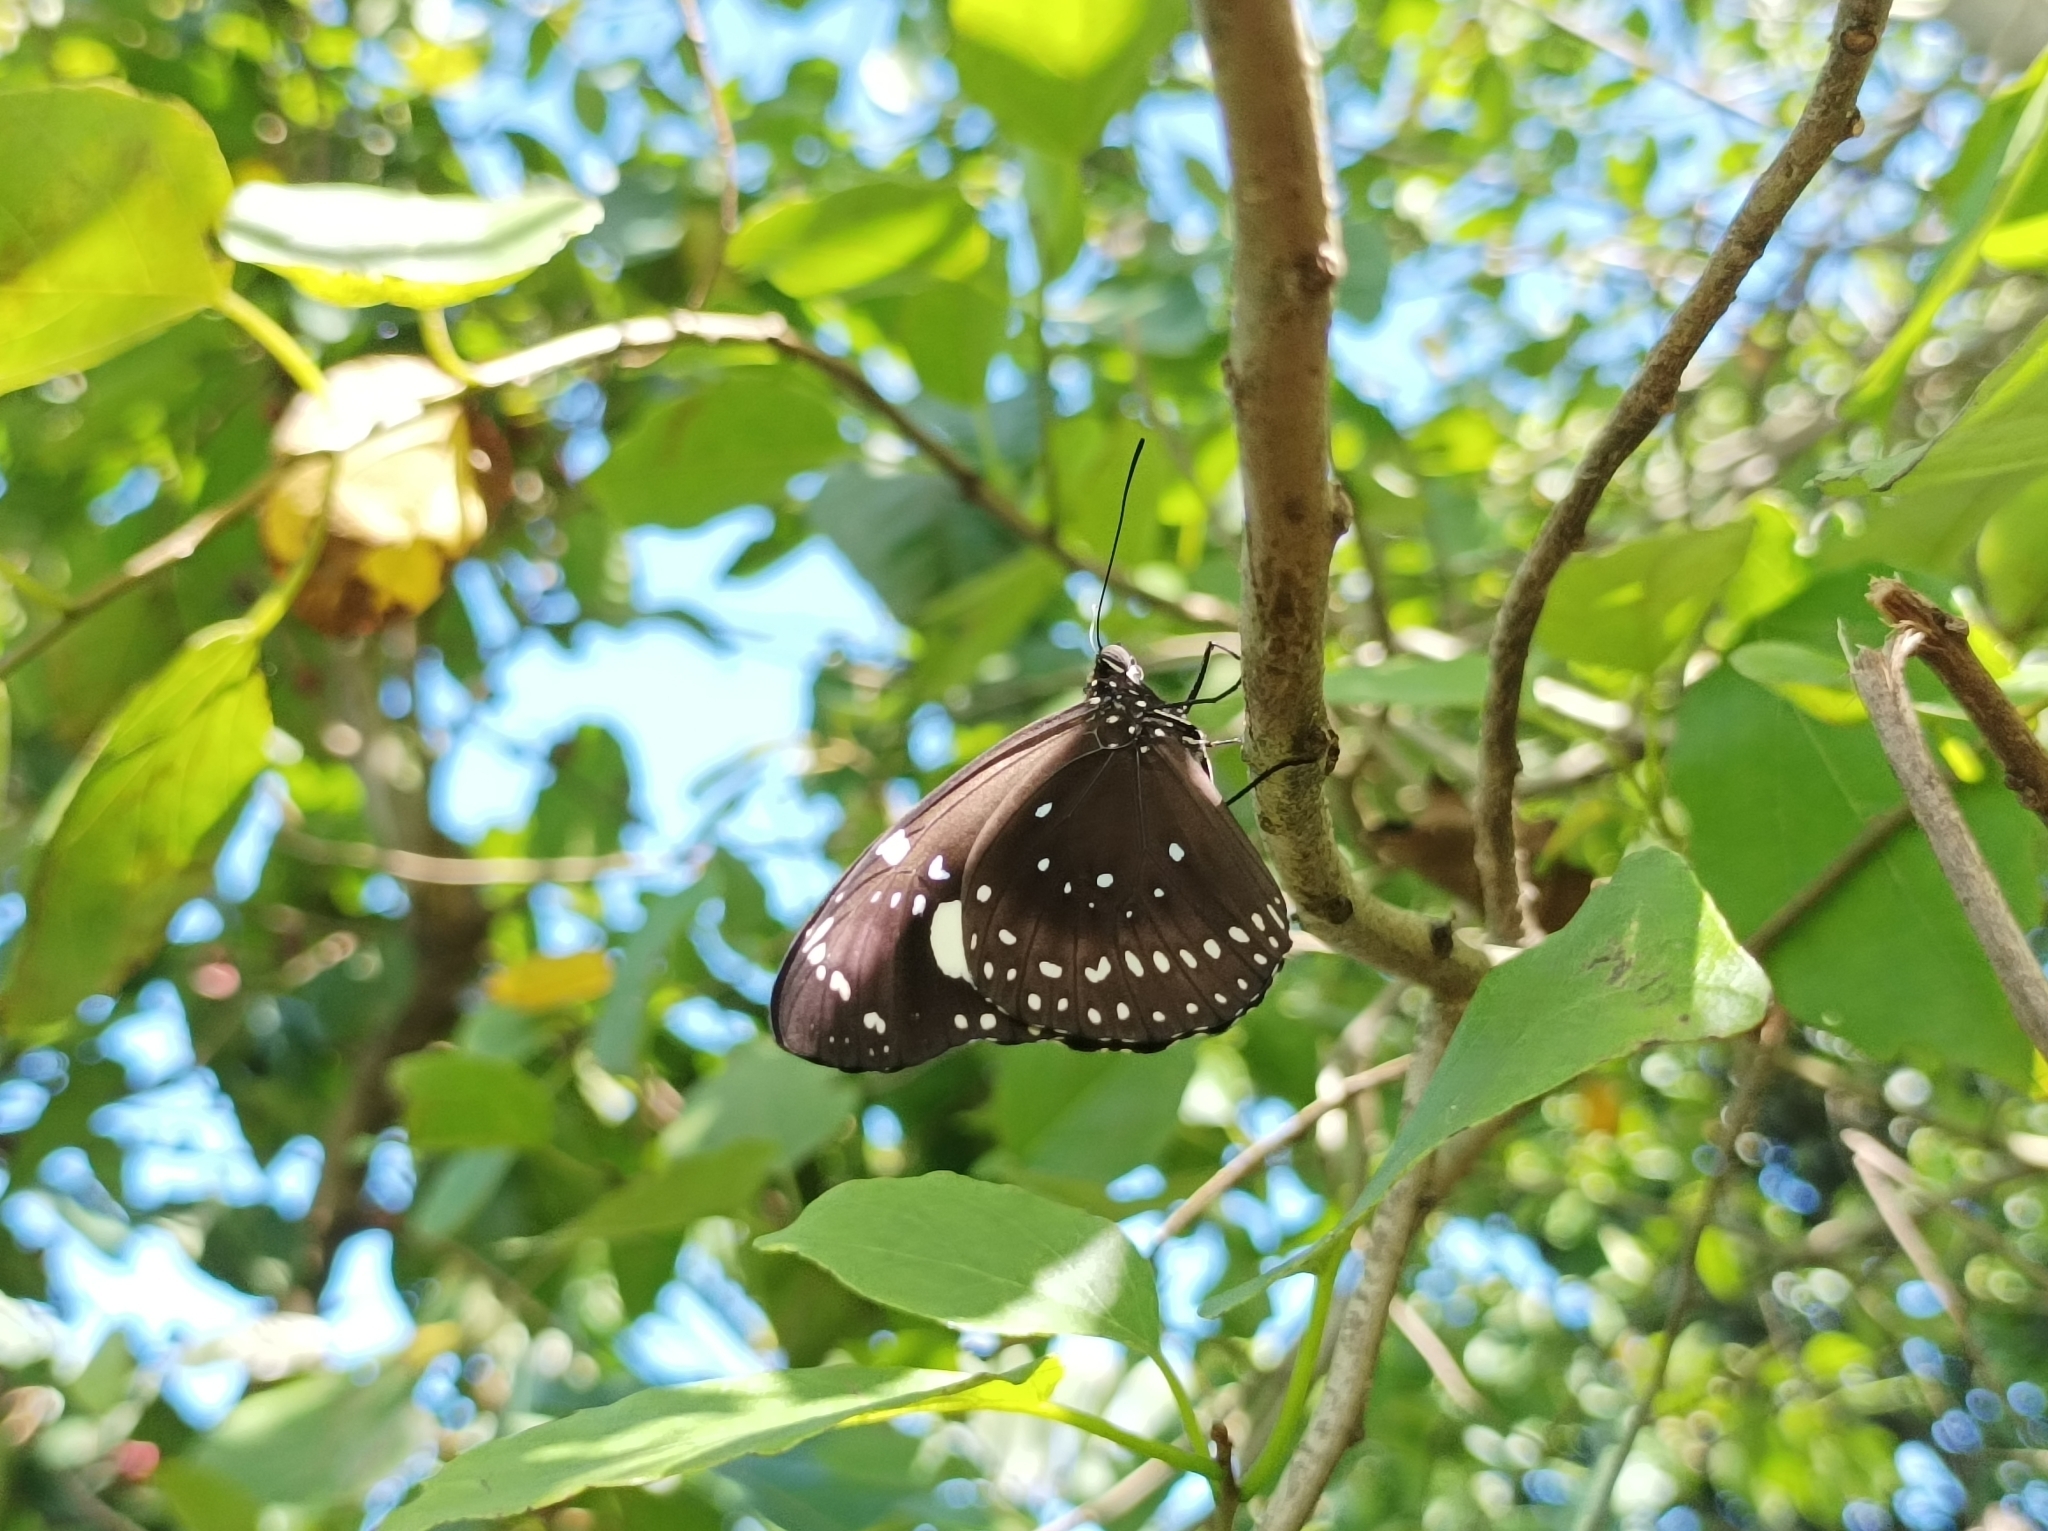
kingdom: Animalia
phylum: Arthropoda
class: Insecta
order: Lepidoptera
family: Nymphalidae
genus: Euploea
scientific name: Euploea lewinii
